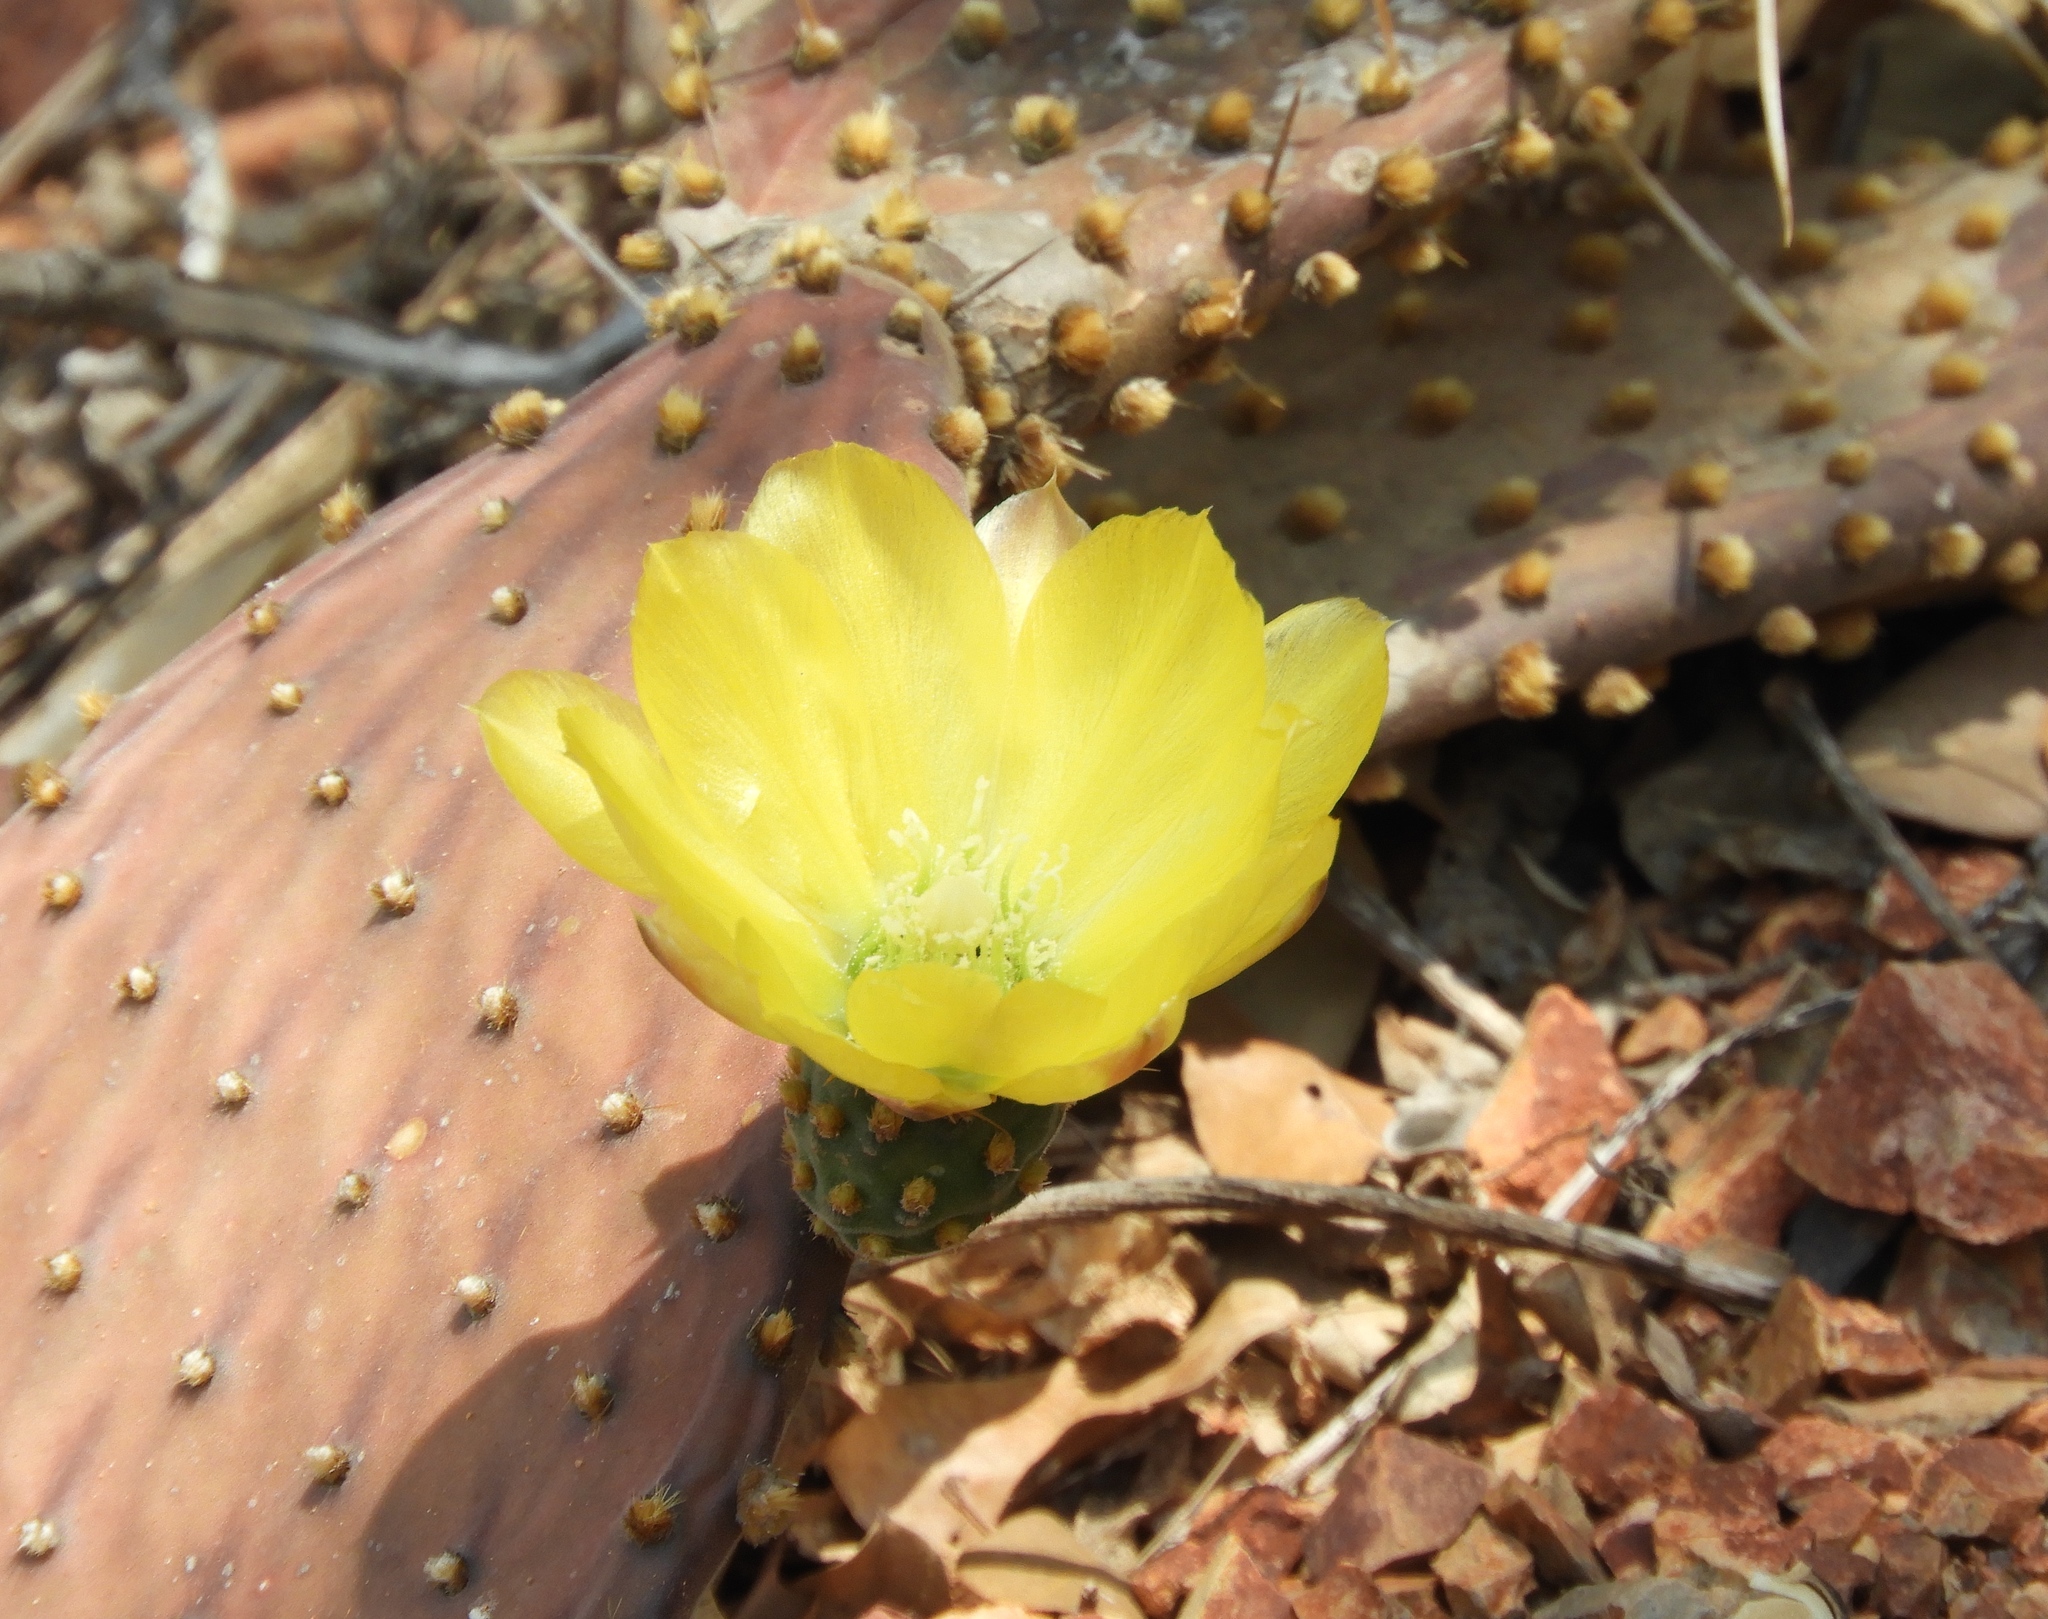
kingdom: Plantae
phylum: Tracheophyta
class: Magnoliopsida
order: Caryophyllales
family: Cactaceae
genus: Opuntia
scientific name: Opuntia decumbens
